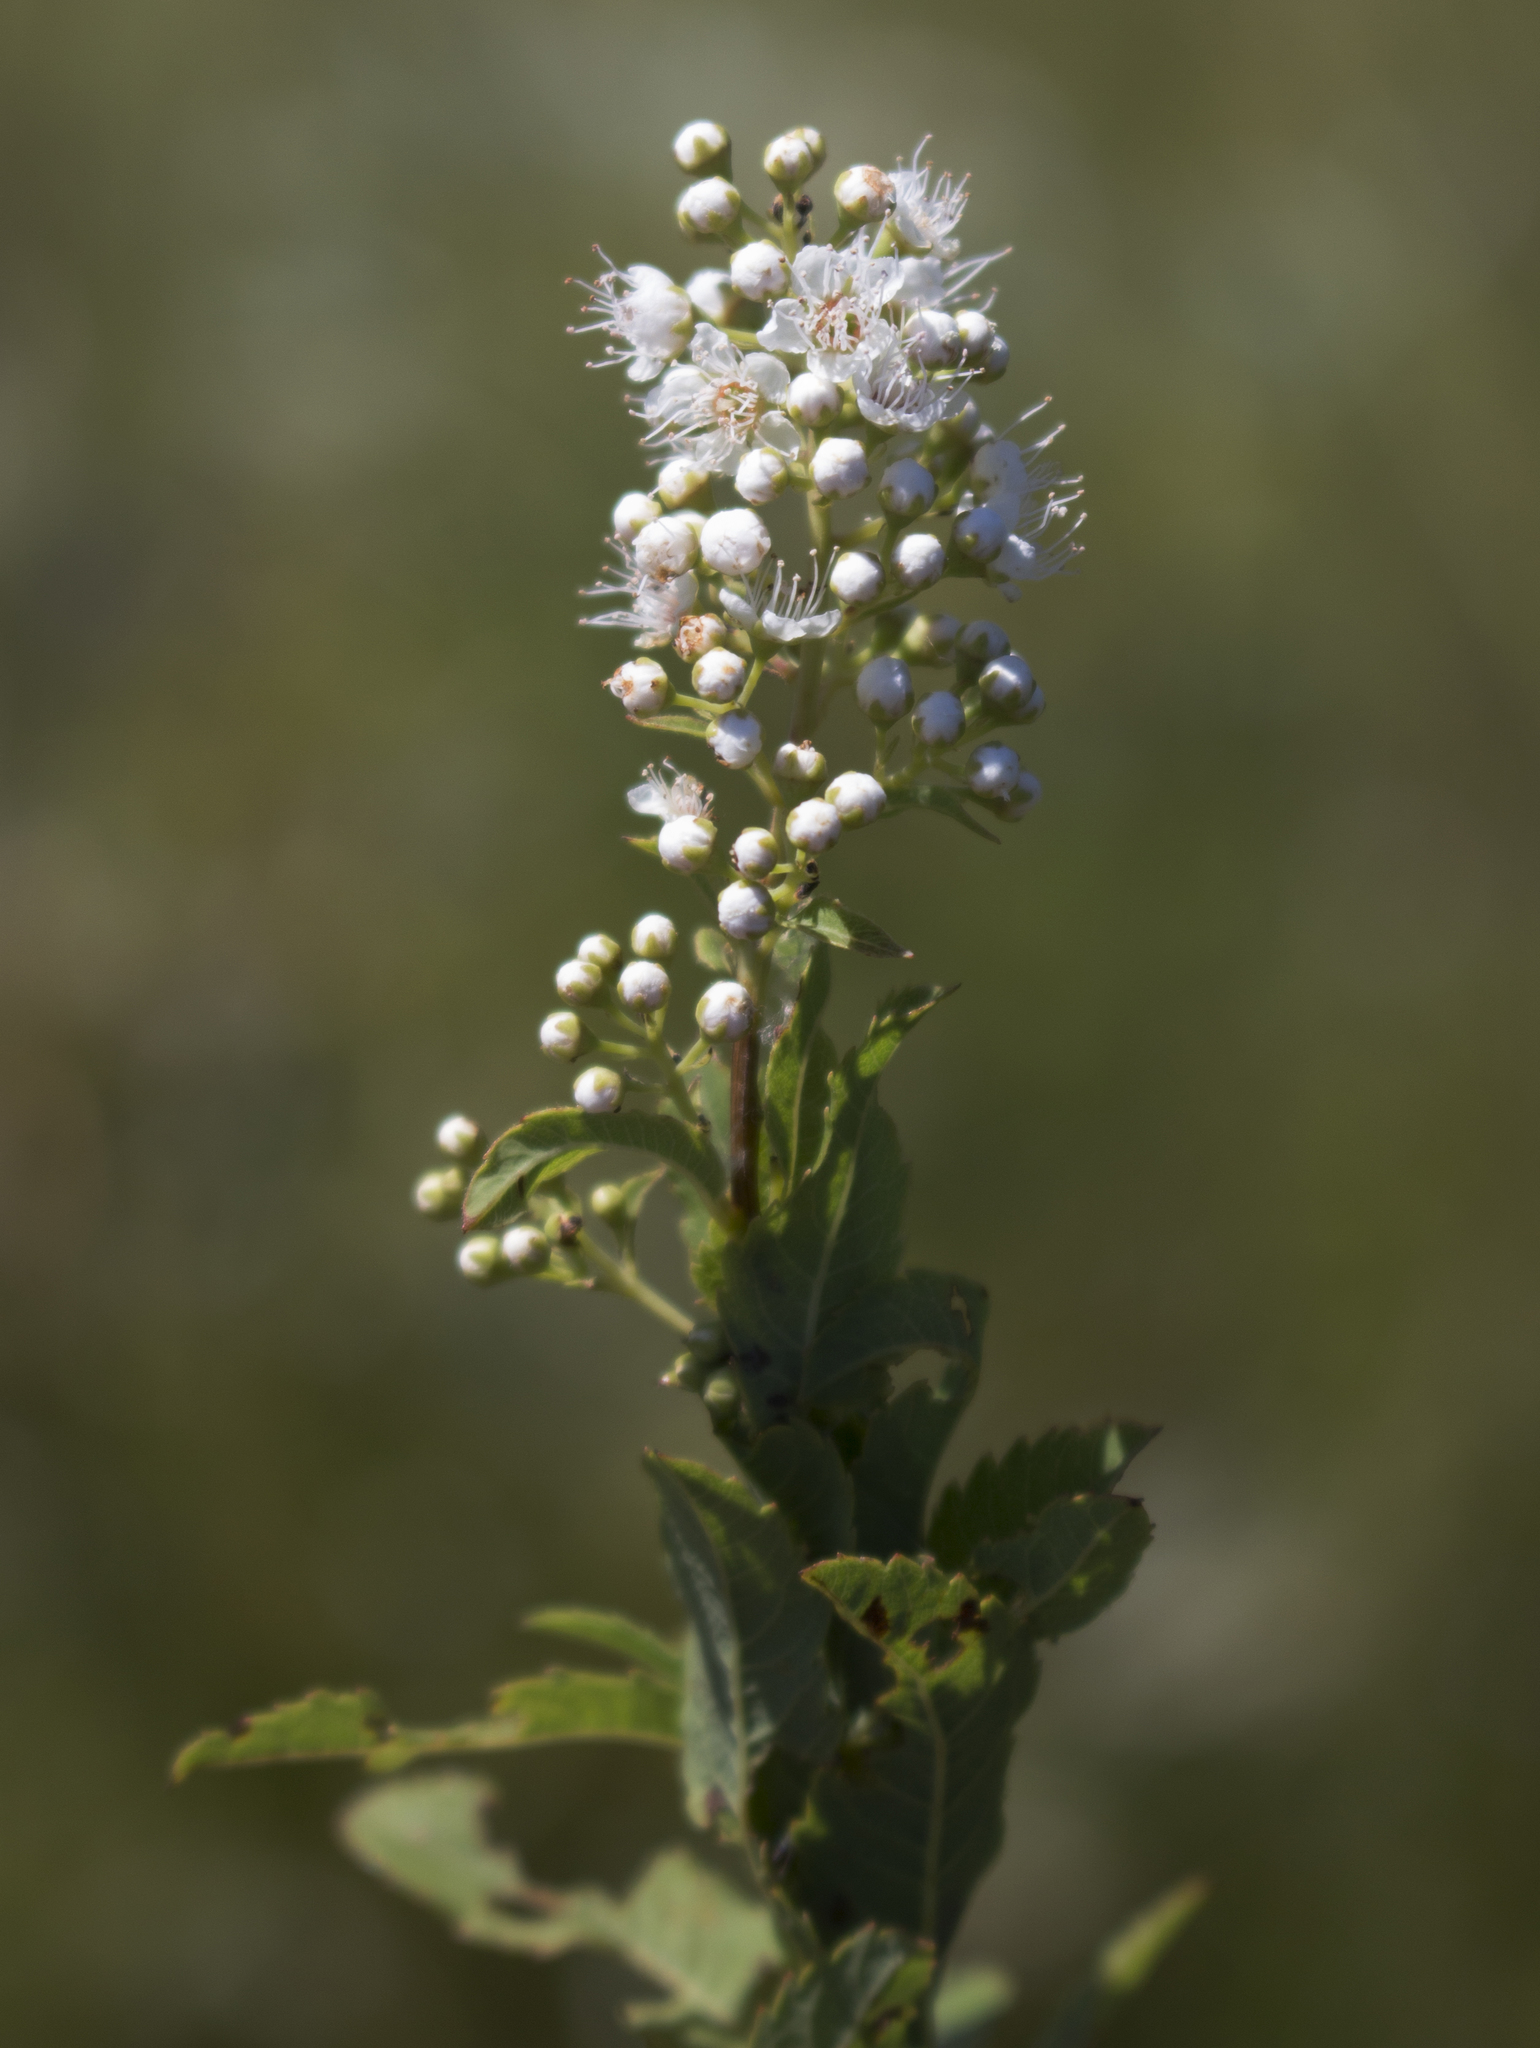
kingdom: Plantae
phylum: Tracheophyta
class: Magnoliopsida
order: Rosales
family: Rosaceae
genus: Spiraea
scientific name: Spiraea alba
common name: Pale bridewort
